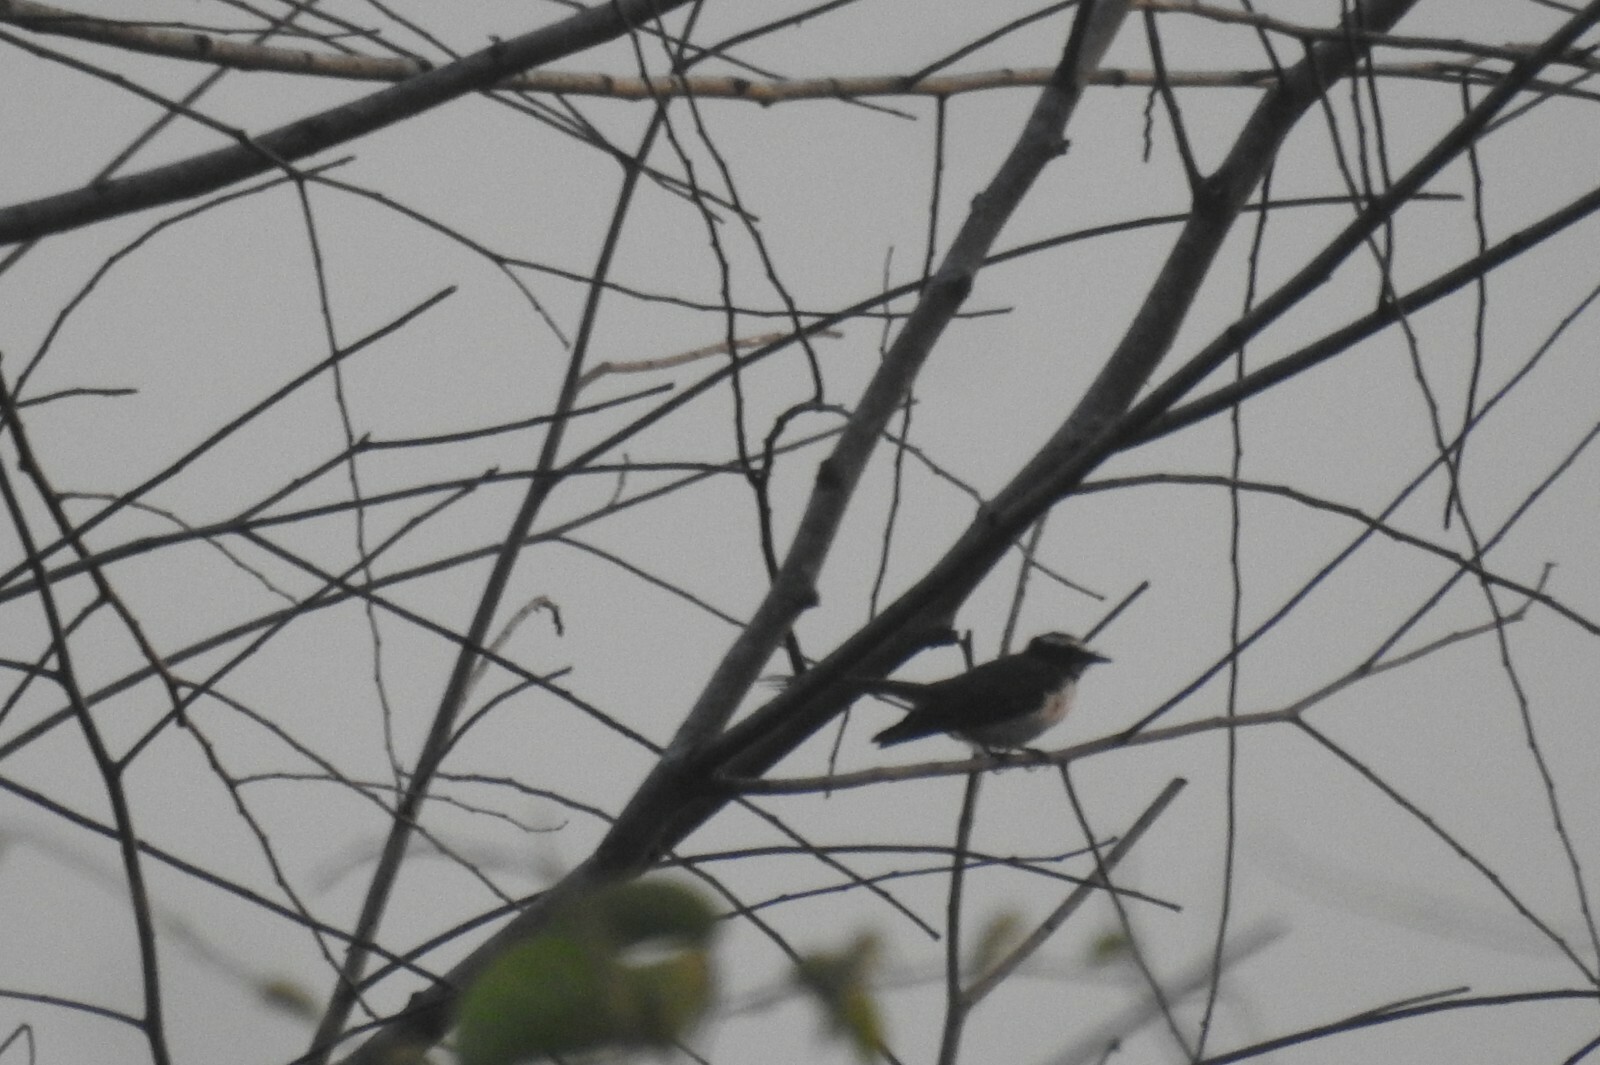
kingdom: Animalia
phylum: Chordata
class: Aves
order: Passeriformes
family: Rhipiduridae
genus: Rhipidura
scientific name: Rhipidura aureola
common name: White-browed fantail
